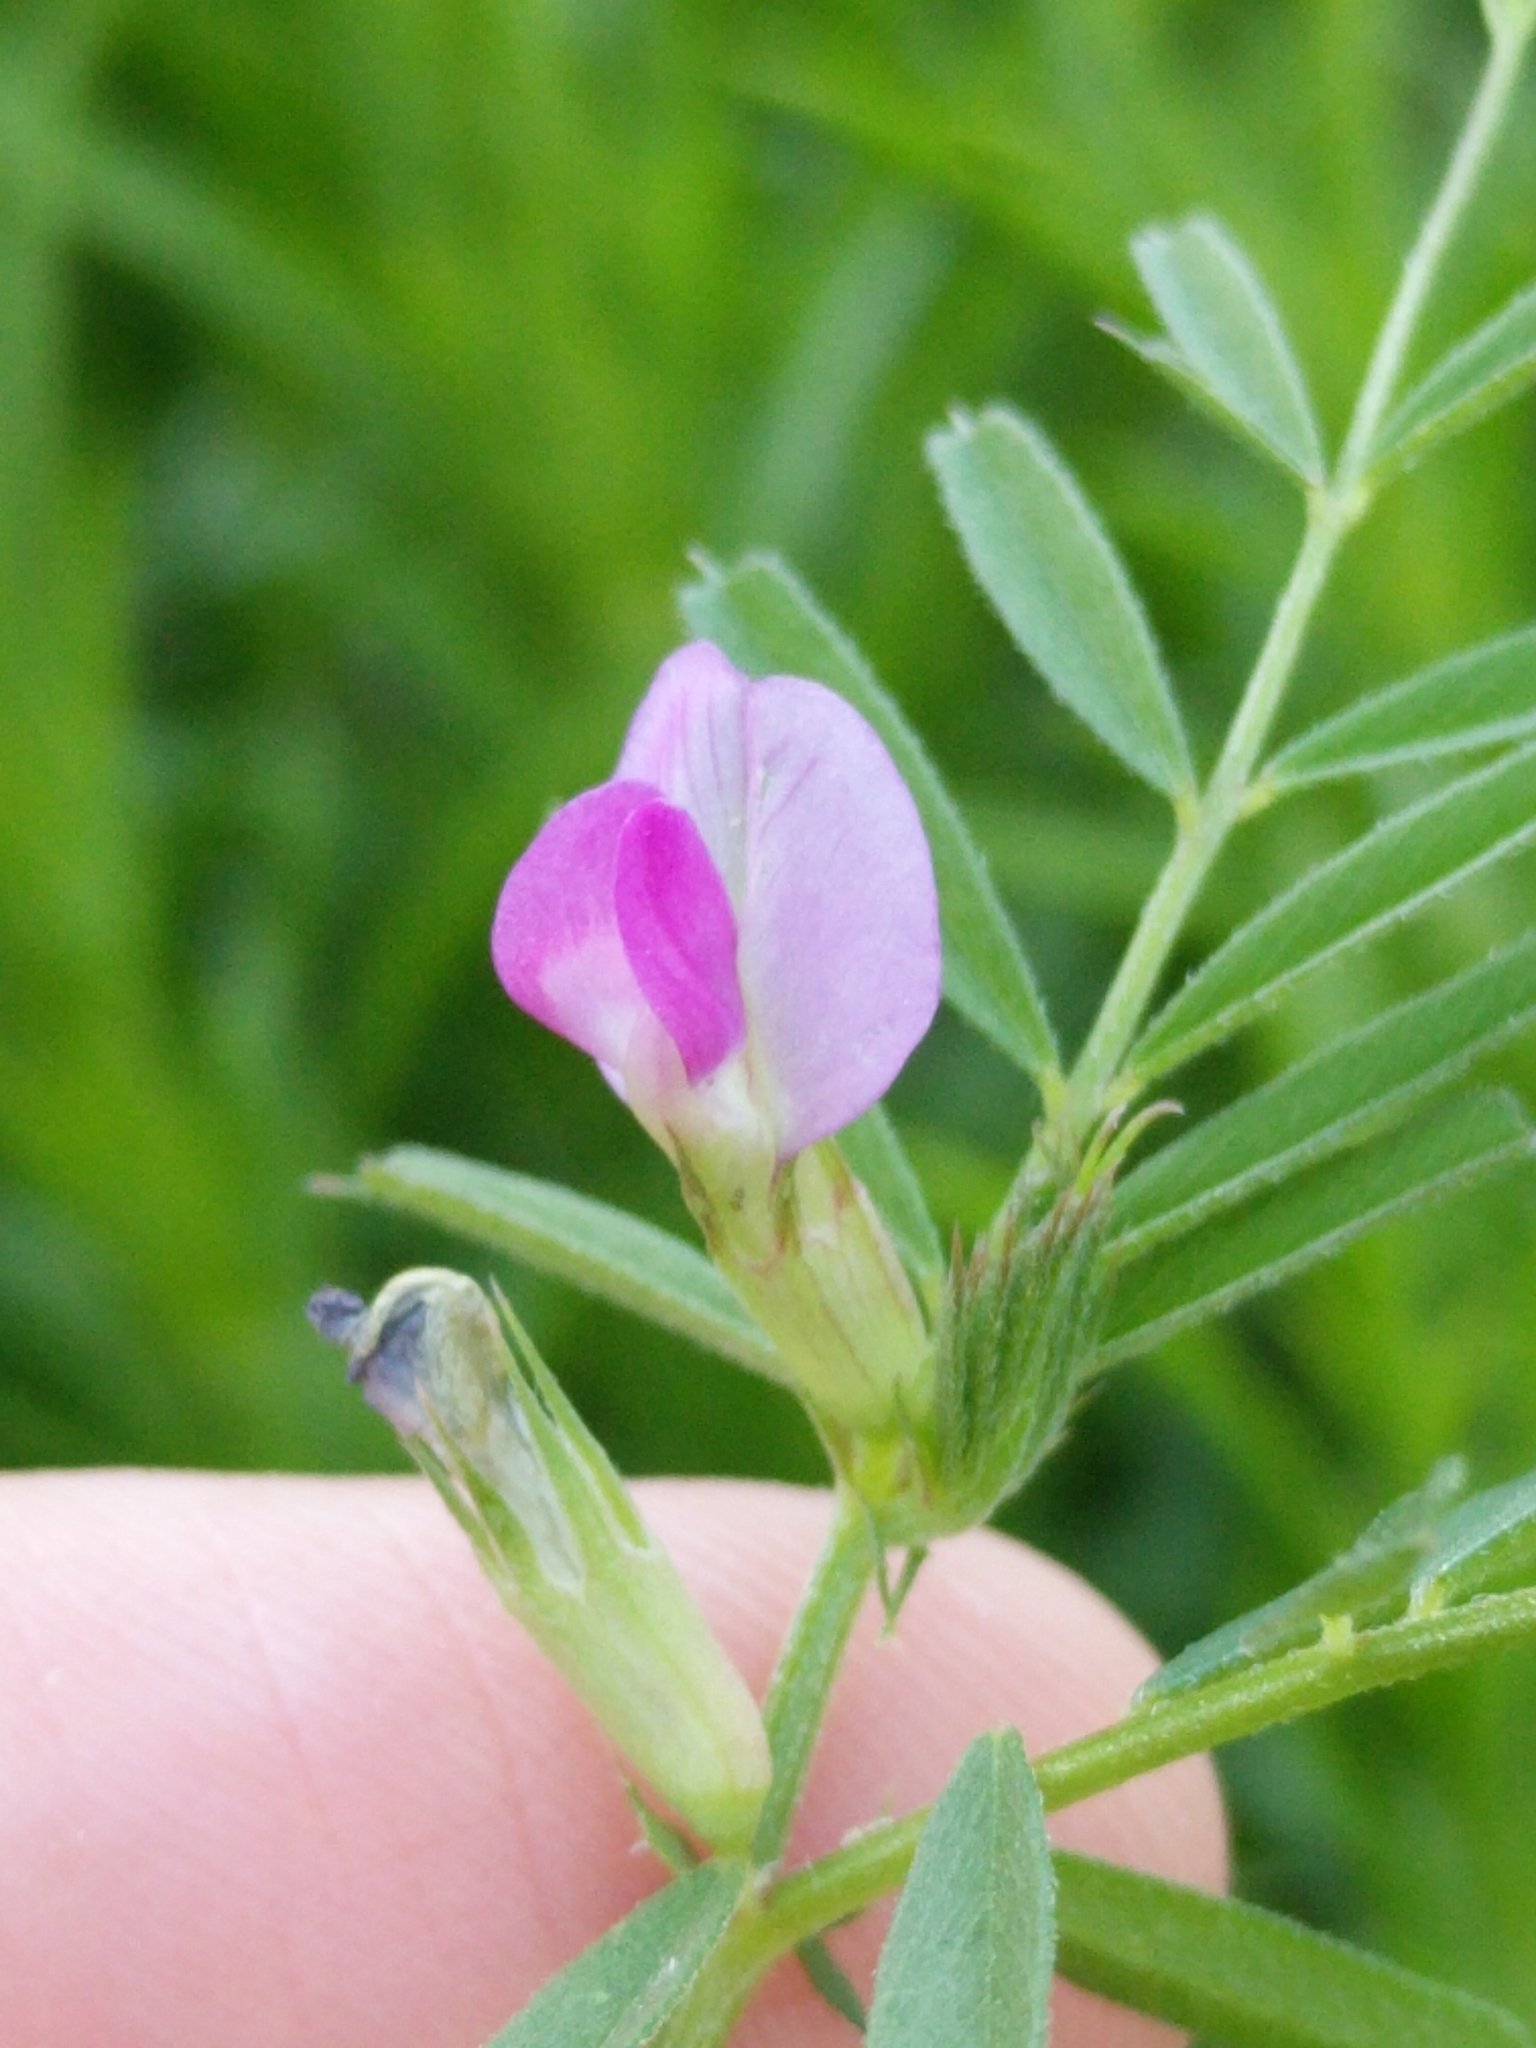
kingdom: Plantae
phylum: Tracheophyta
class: Magnoliopsida
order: Fabales
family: Fabaceae
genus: Vicia
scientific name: Vicia sativa
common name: Garden vetch
